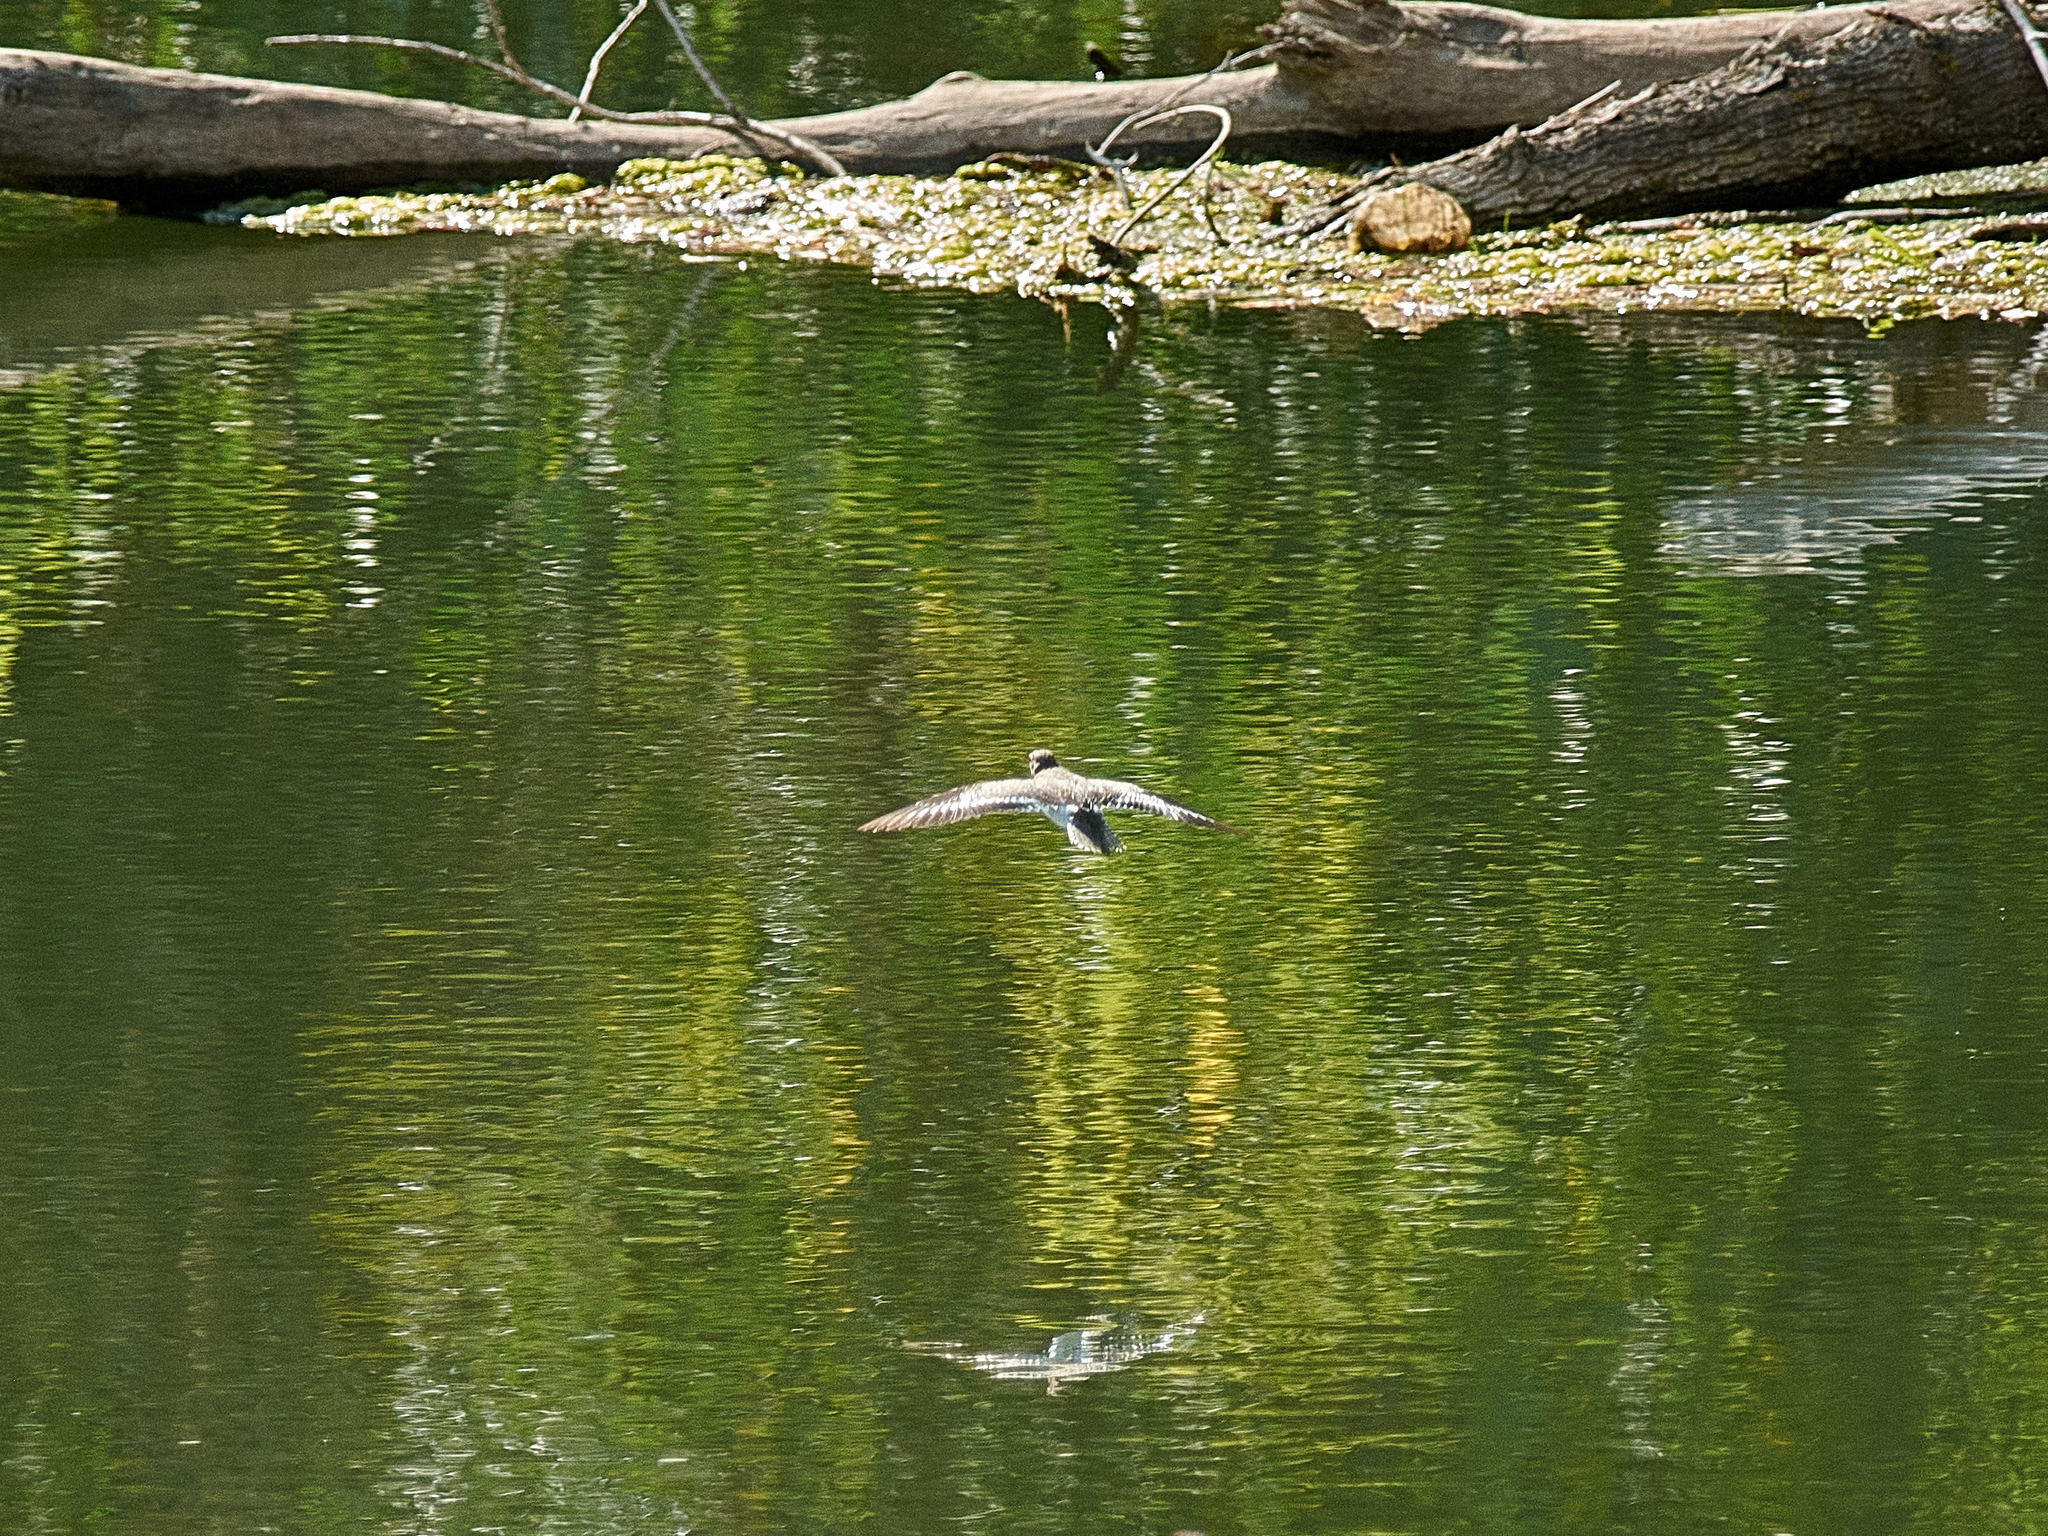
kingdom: Animalia
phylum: Chordata
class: Aves
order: Charadriiformes
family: Scolopacidae
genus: Actitis
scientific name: Actitis hypoleucos
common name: Common sandpiper
